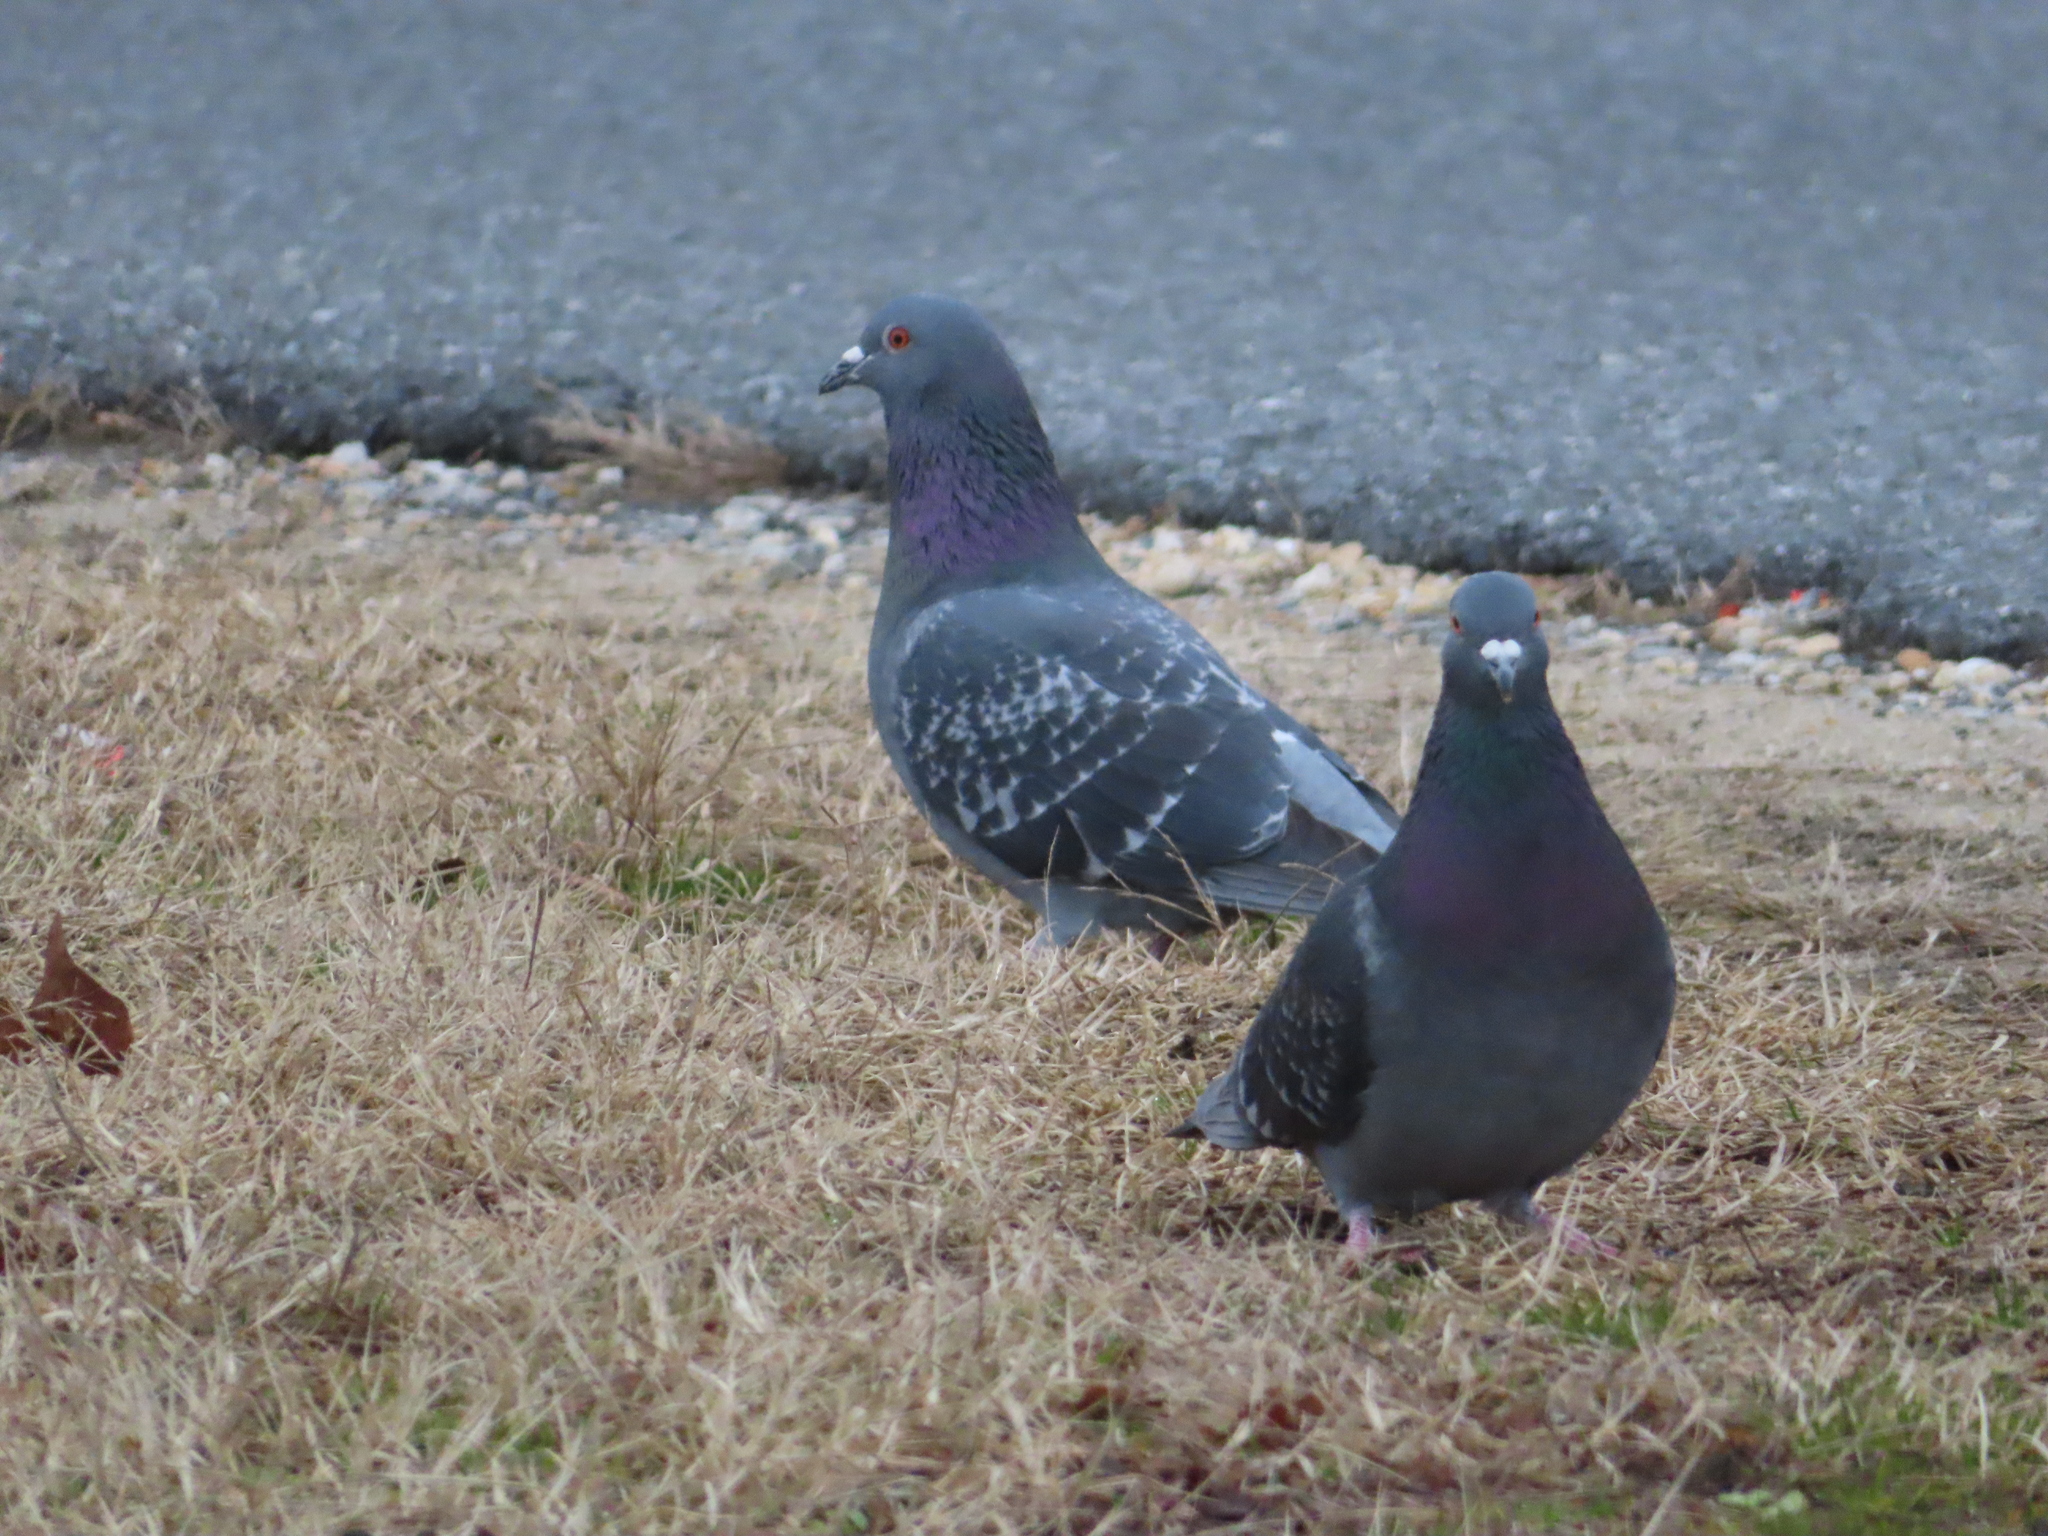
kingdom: Animalia
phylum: Chordata
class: Aves
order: Columbiformes
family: Columbidae
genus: Columba
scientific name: Columba livia
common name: Rock pigeon
